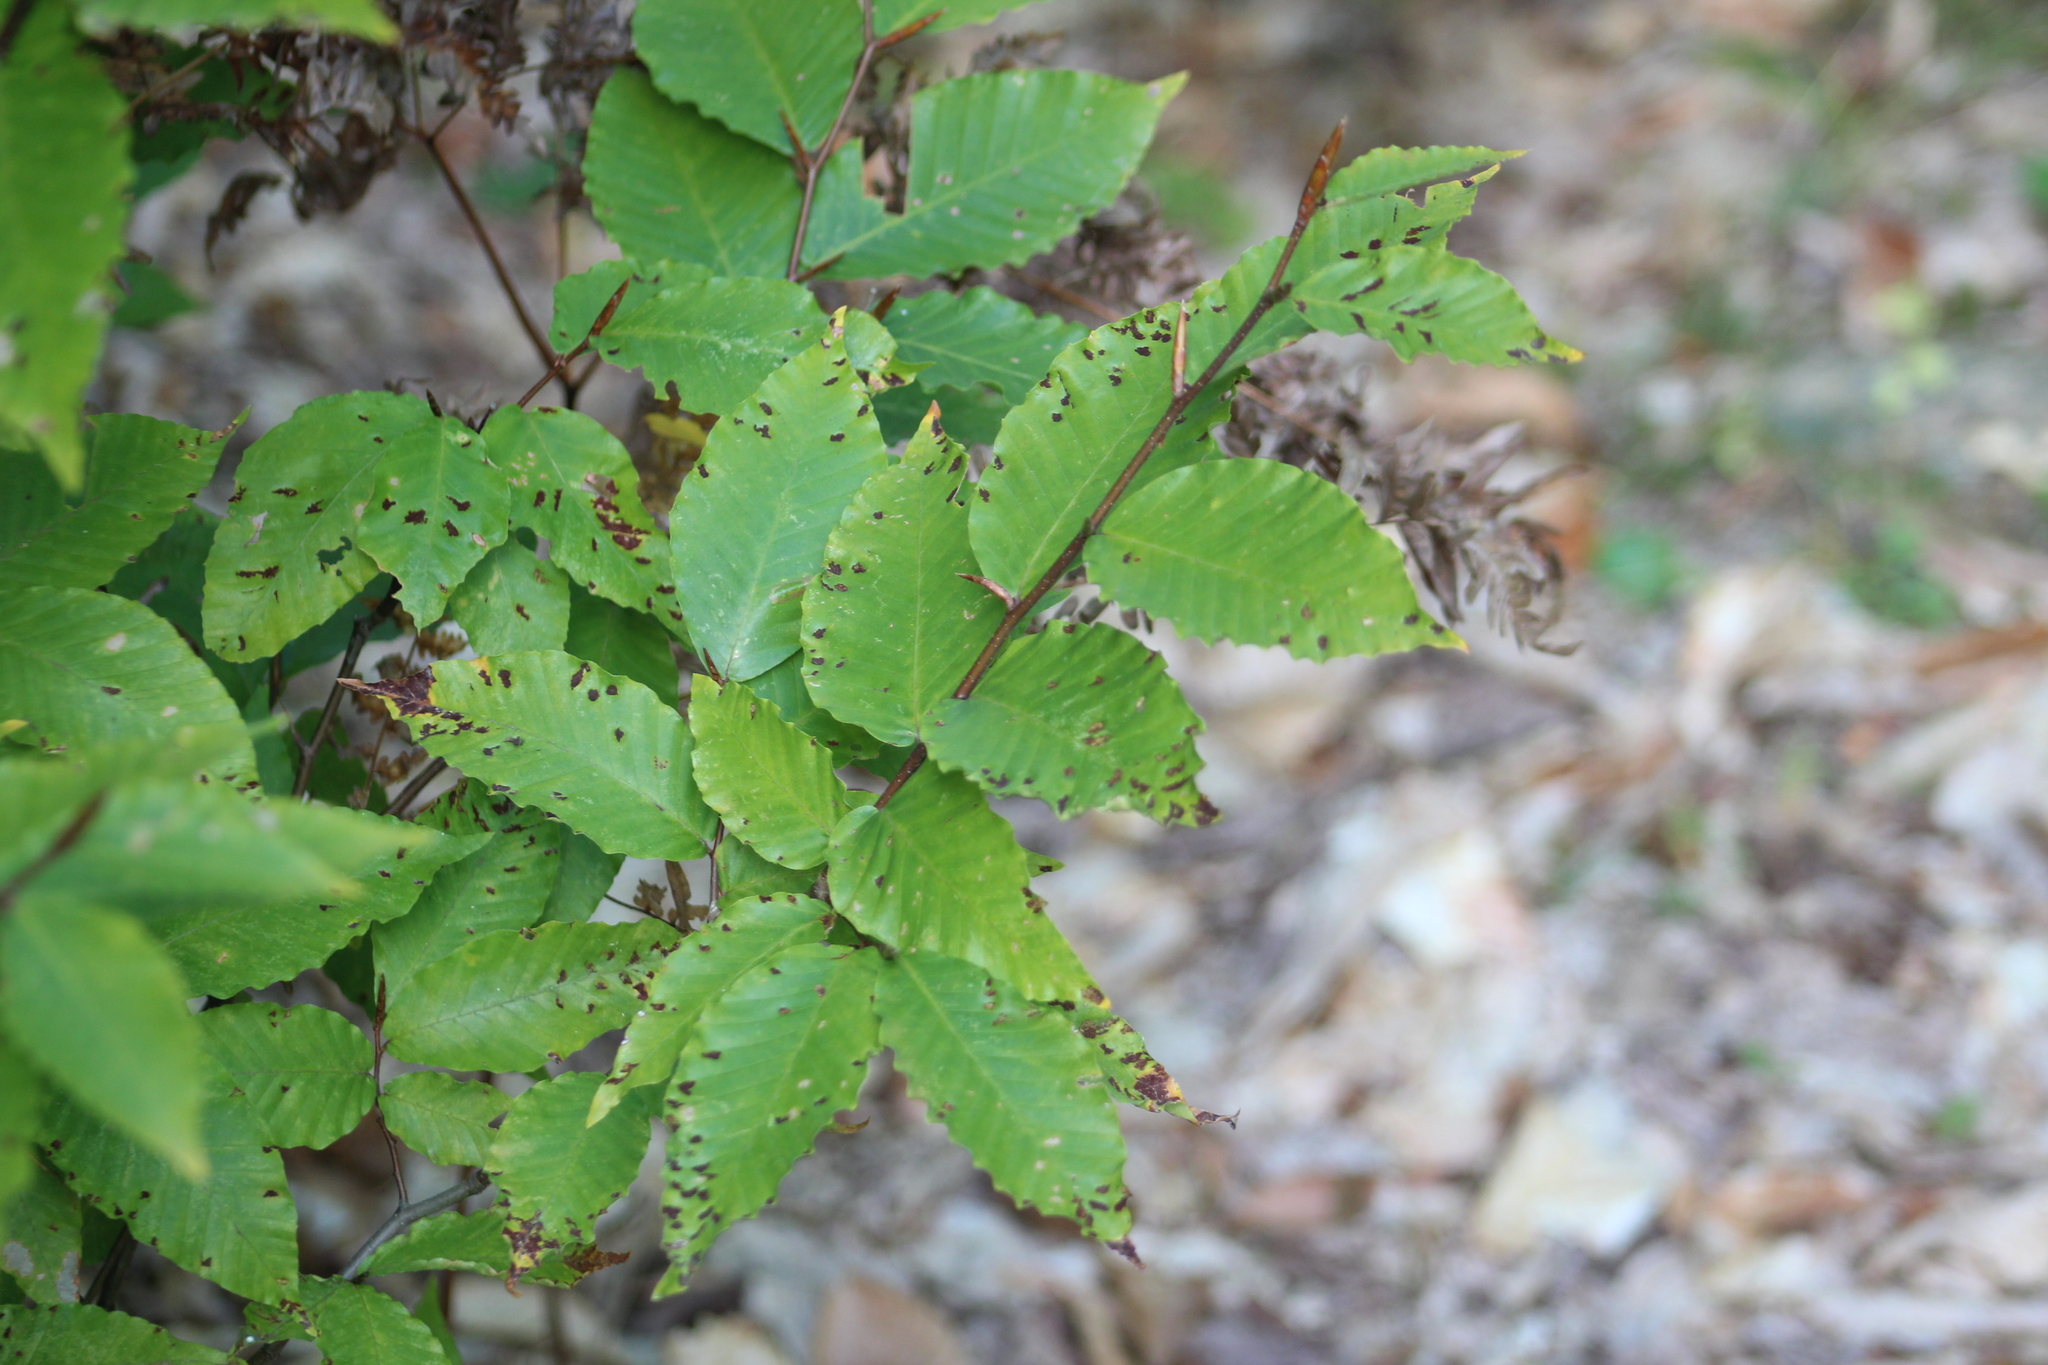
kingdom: Plantae
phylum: Tracheophyta
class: Magnoliopsida
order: Fagales
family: Fagaceae
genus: Fagus
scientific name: Fagus grandifolia
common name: American beech
